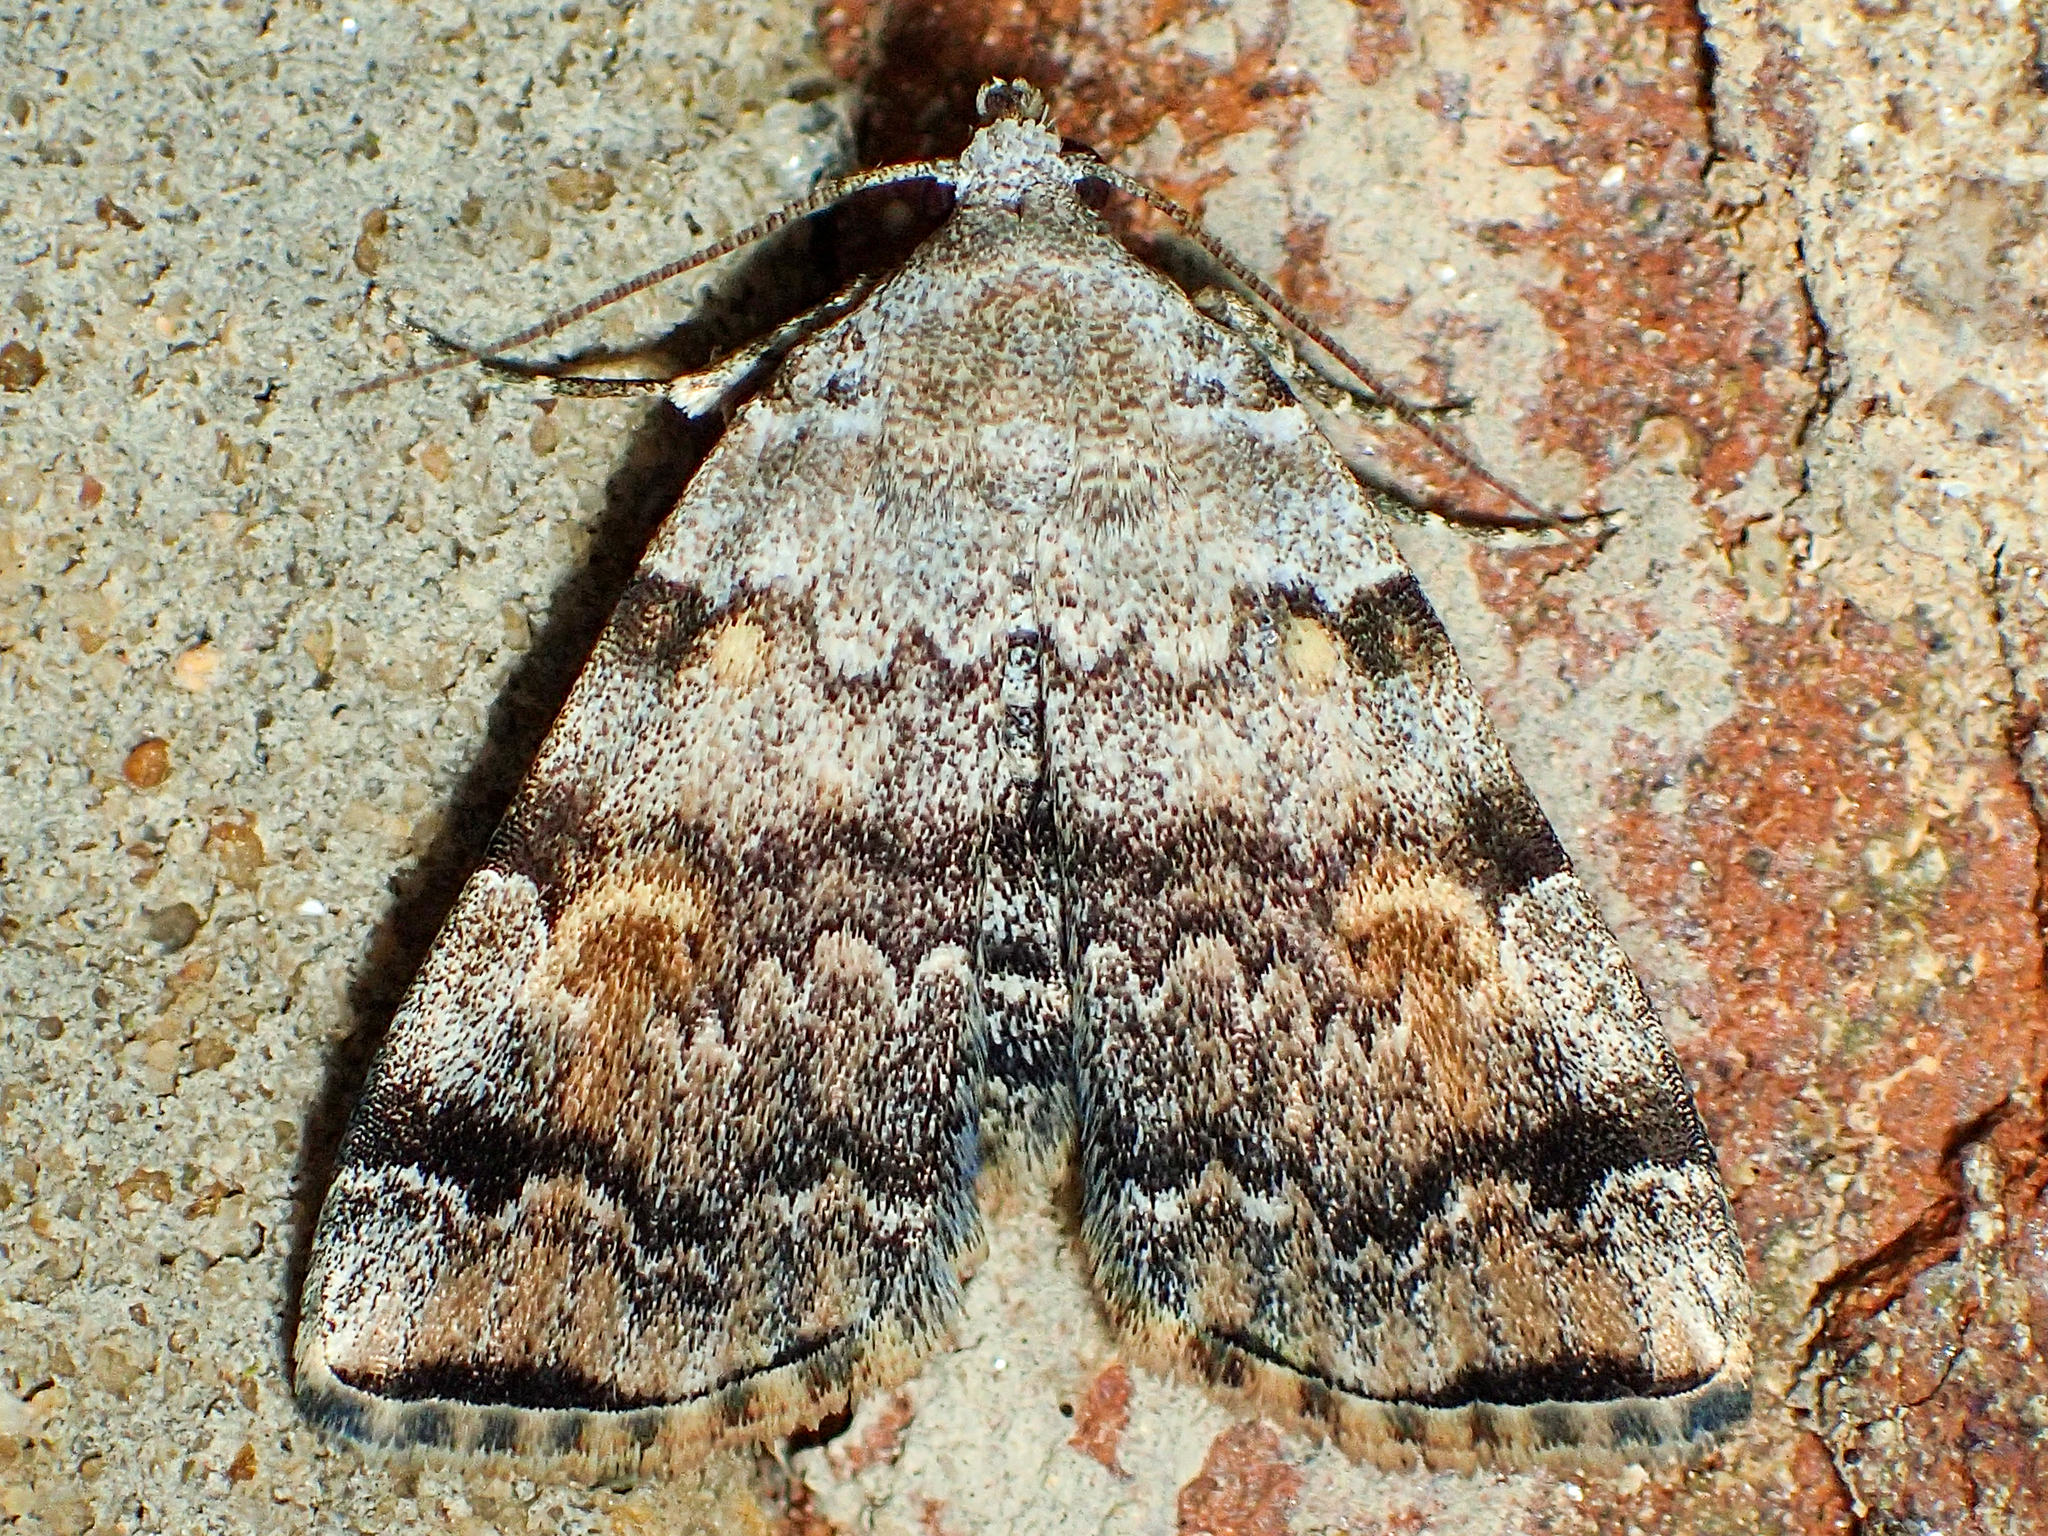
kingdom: Animalia
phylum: Arthropoda
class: Insecta
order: Lepidoptera
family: Erebidae
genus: Idia
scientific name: Idia americalis
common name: American idia moth
